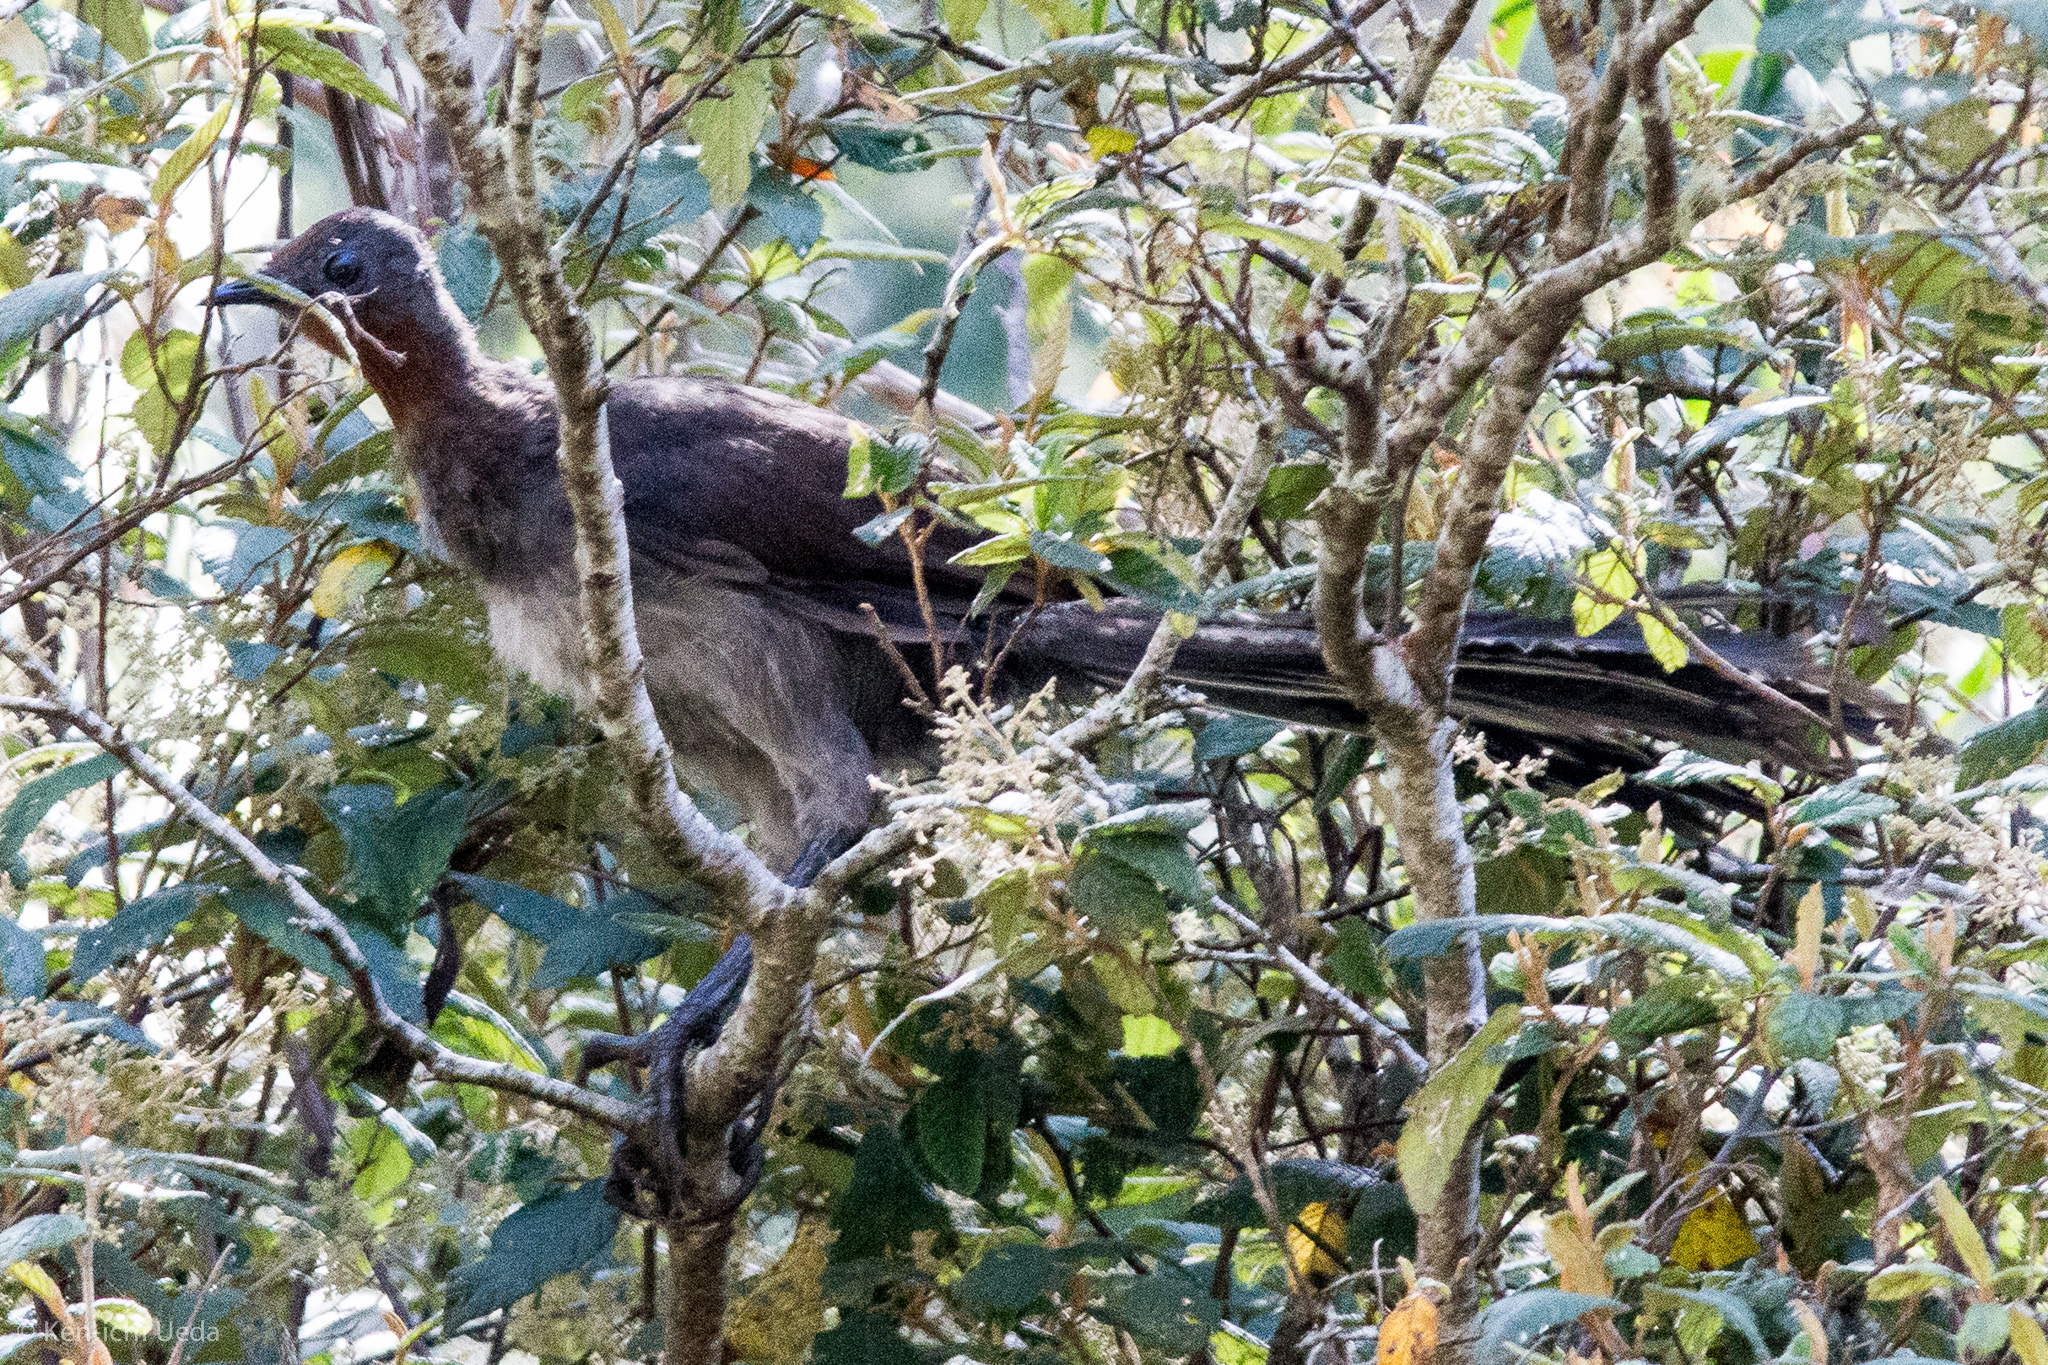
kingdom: Animalia
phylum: Chordata
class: Aves
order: Passeriformes
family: Menuridae
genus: Menura
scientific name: Menura novaehollandiae
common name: Superb lyrebird
